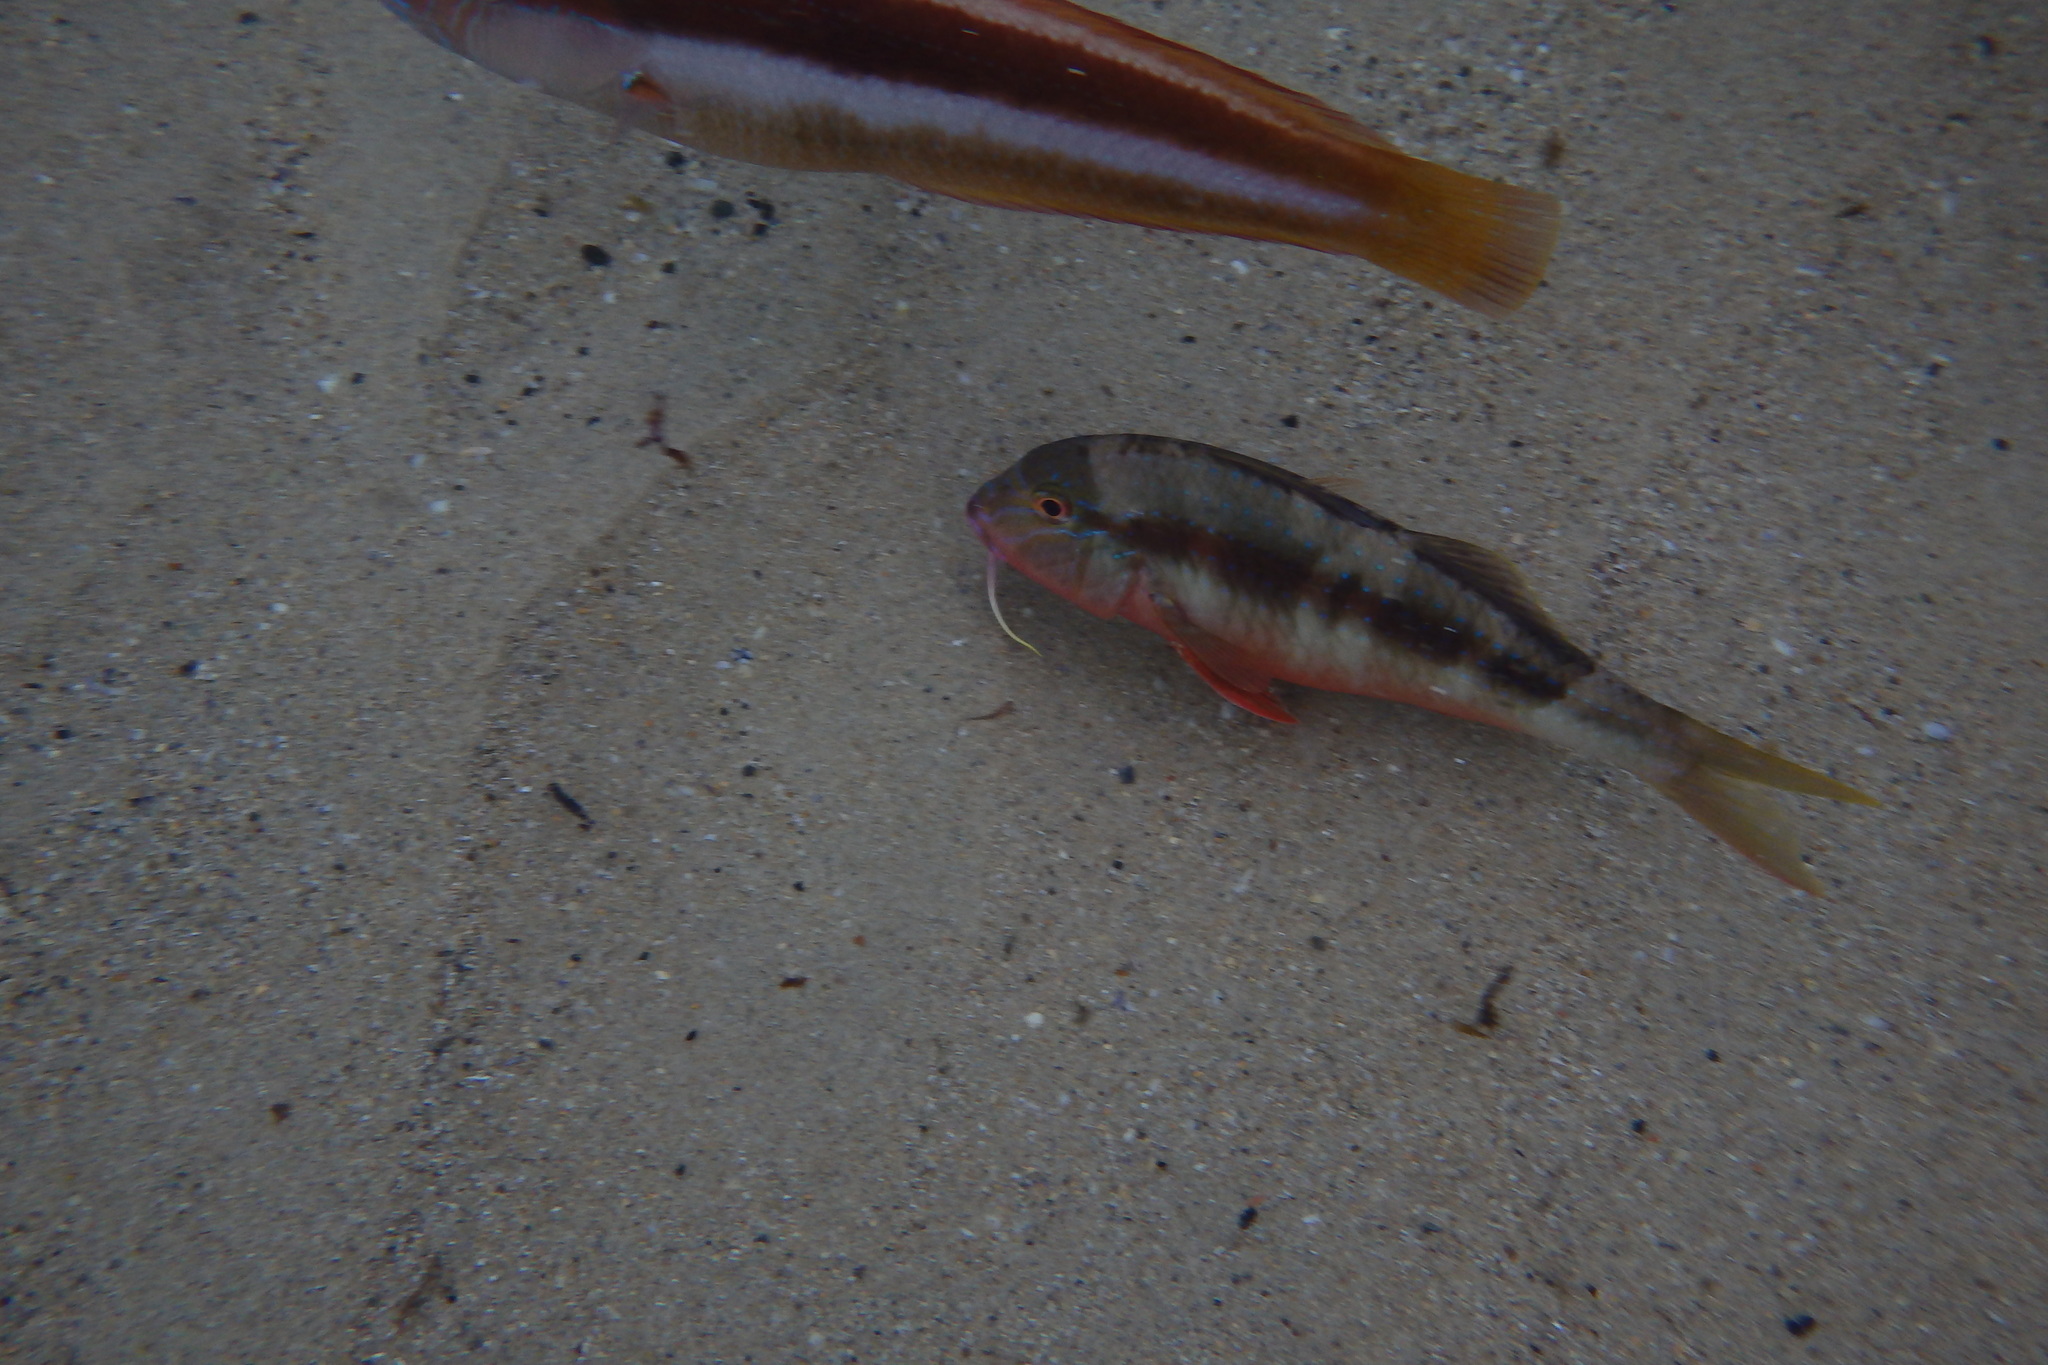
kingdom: Animalia
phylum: Chordata
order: Perciformes
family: Mullidae
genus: Upeneichthys
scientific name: Upeneichthys lineatus
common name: Red mullet
